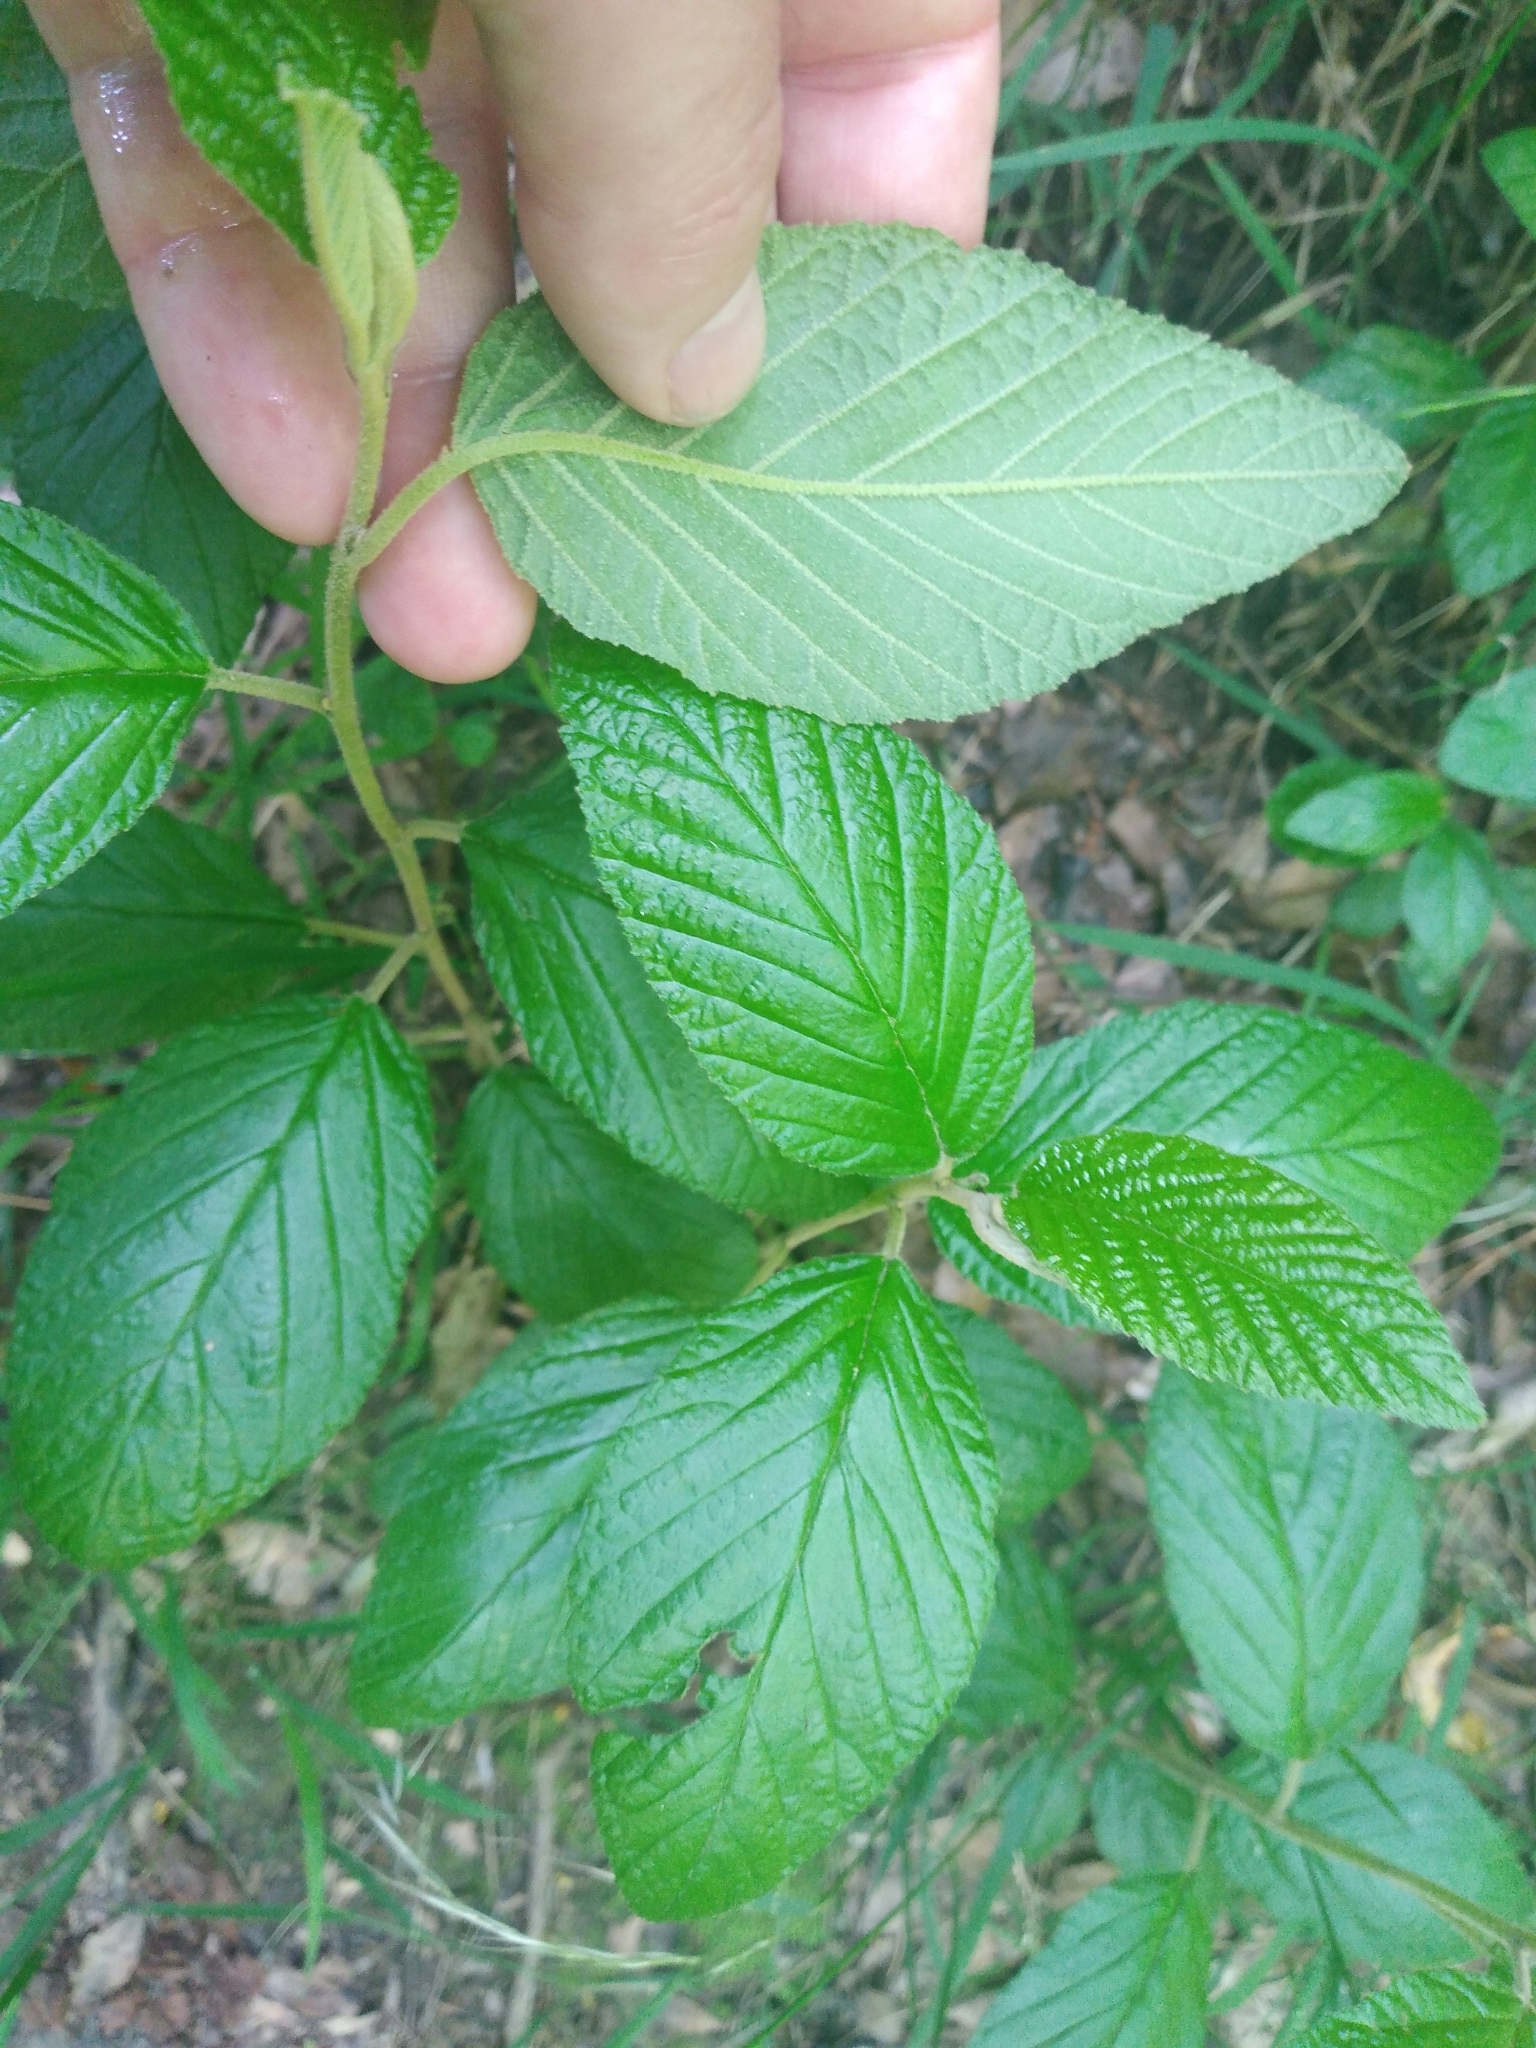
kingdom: Plantae
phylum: Tracheophyta
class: Magnoliopsida
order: Rosales
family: Rhamnaceae
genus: Pomaderris
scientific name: Pomaderris aspera
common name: Hazel pomaderris
